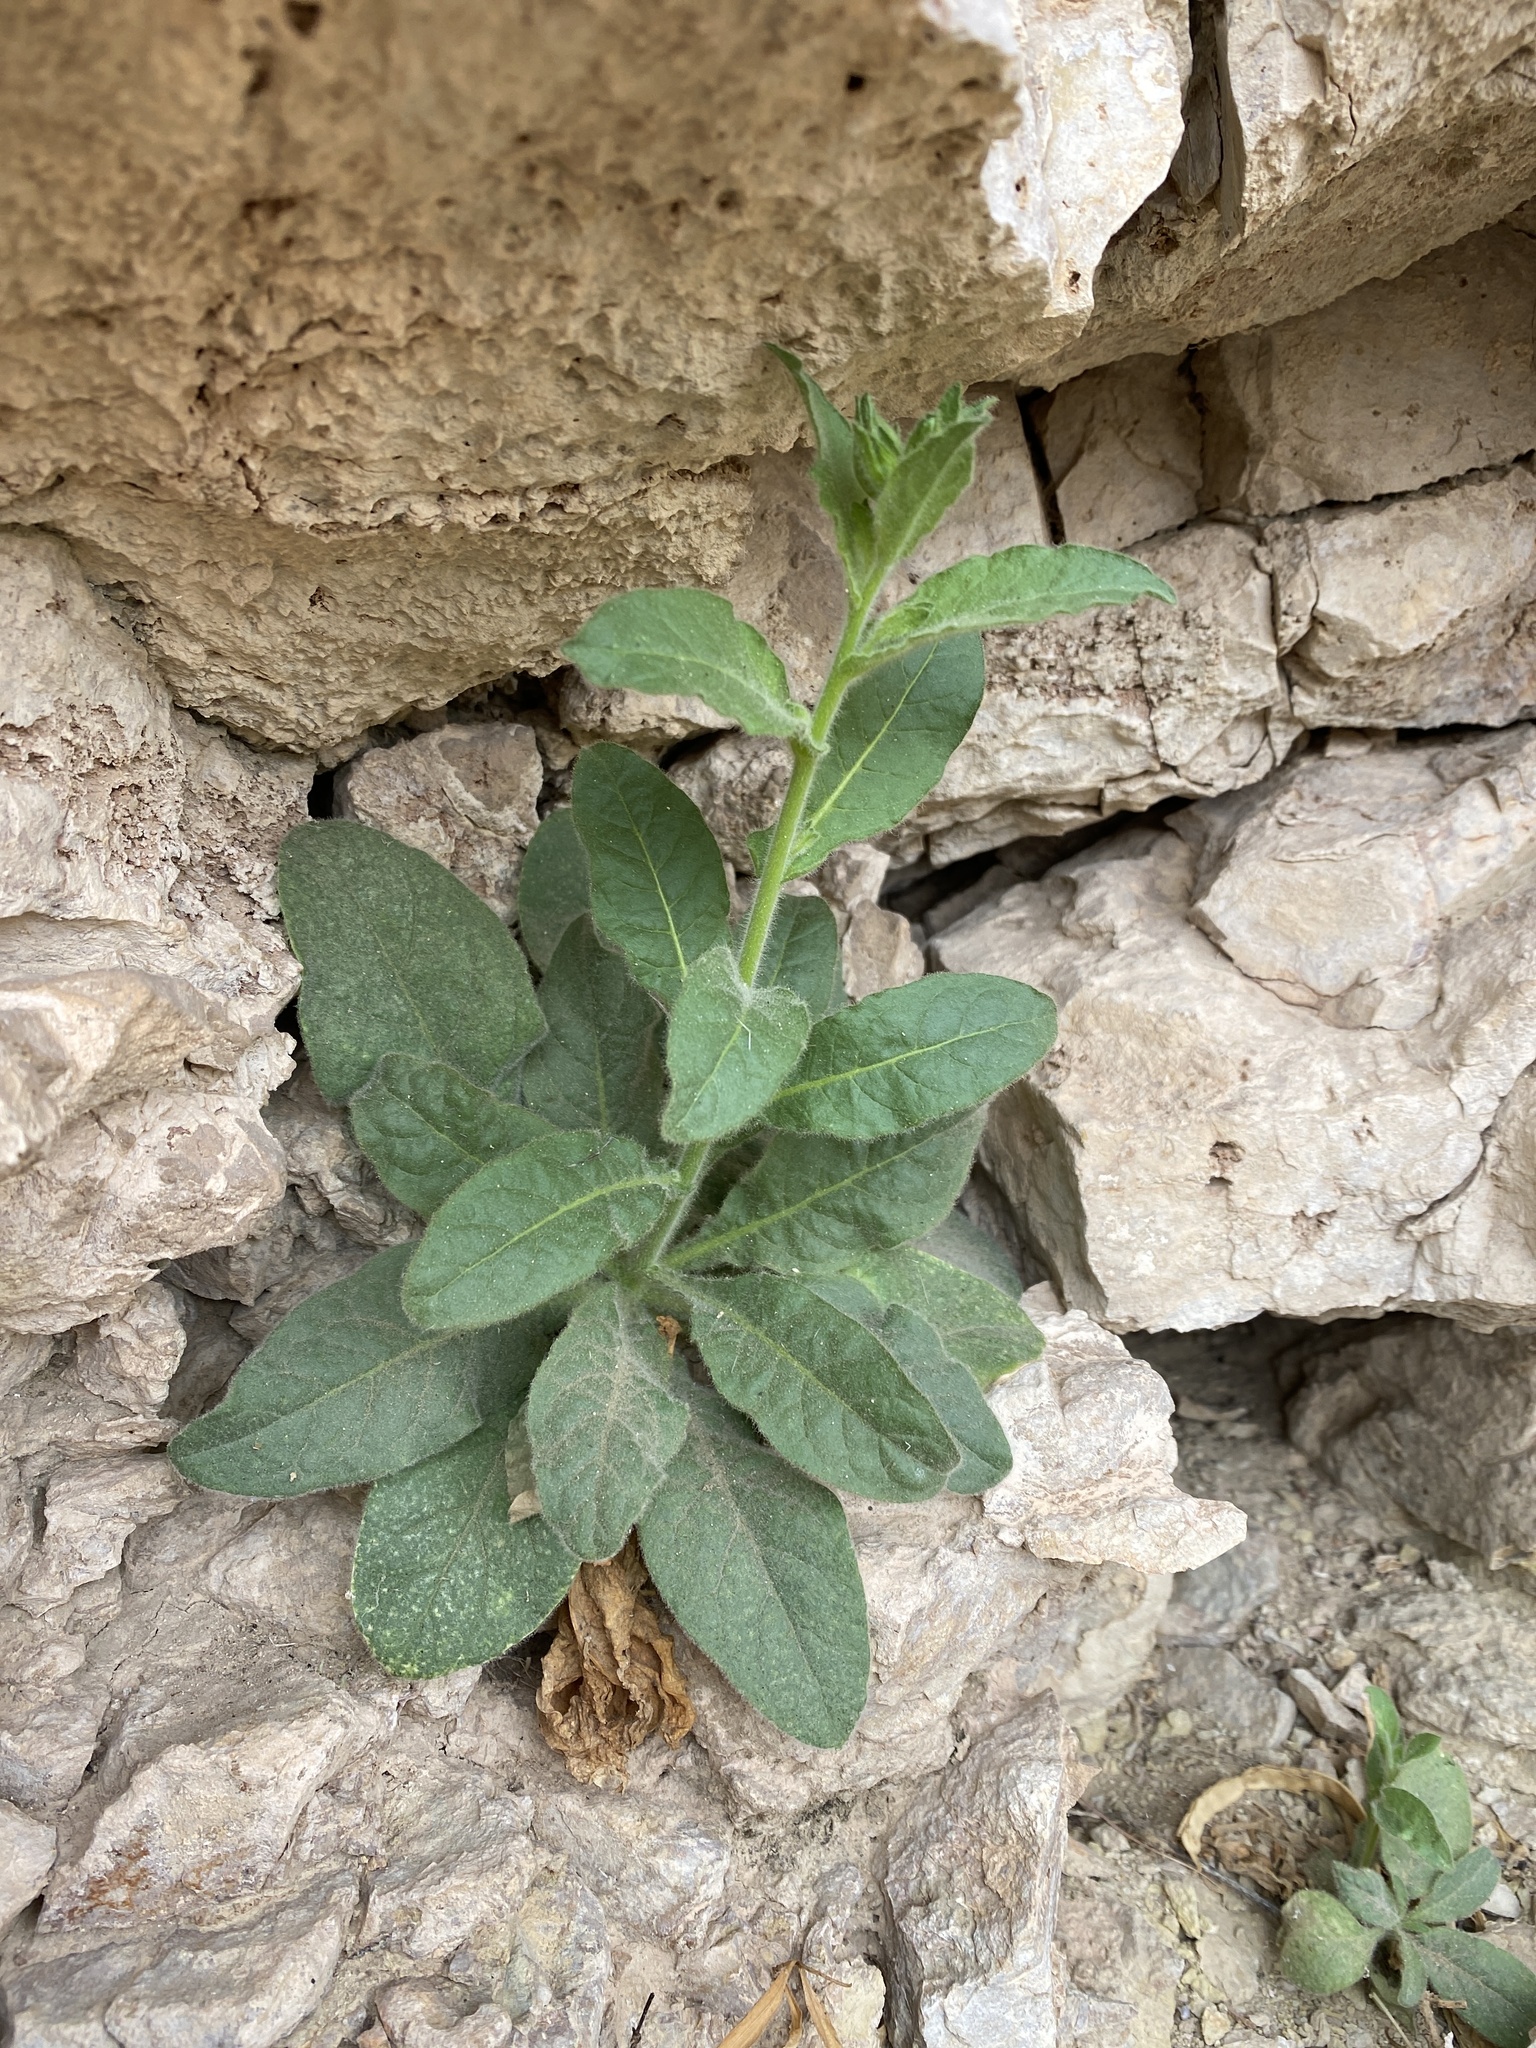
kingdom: Plantae
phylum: Tracheophyta
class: Magnoliopsida
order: Solanales
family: Solanaceae
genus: Nicotiana
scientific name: Nicotiana obtusifolia
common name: Desert tobacco
